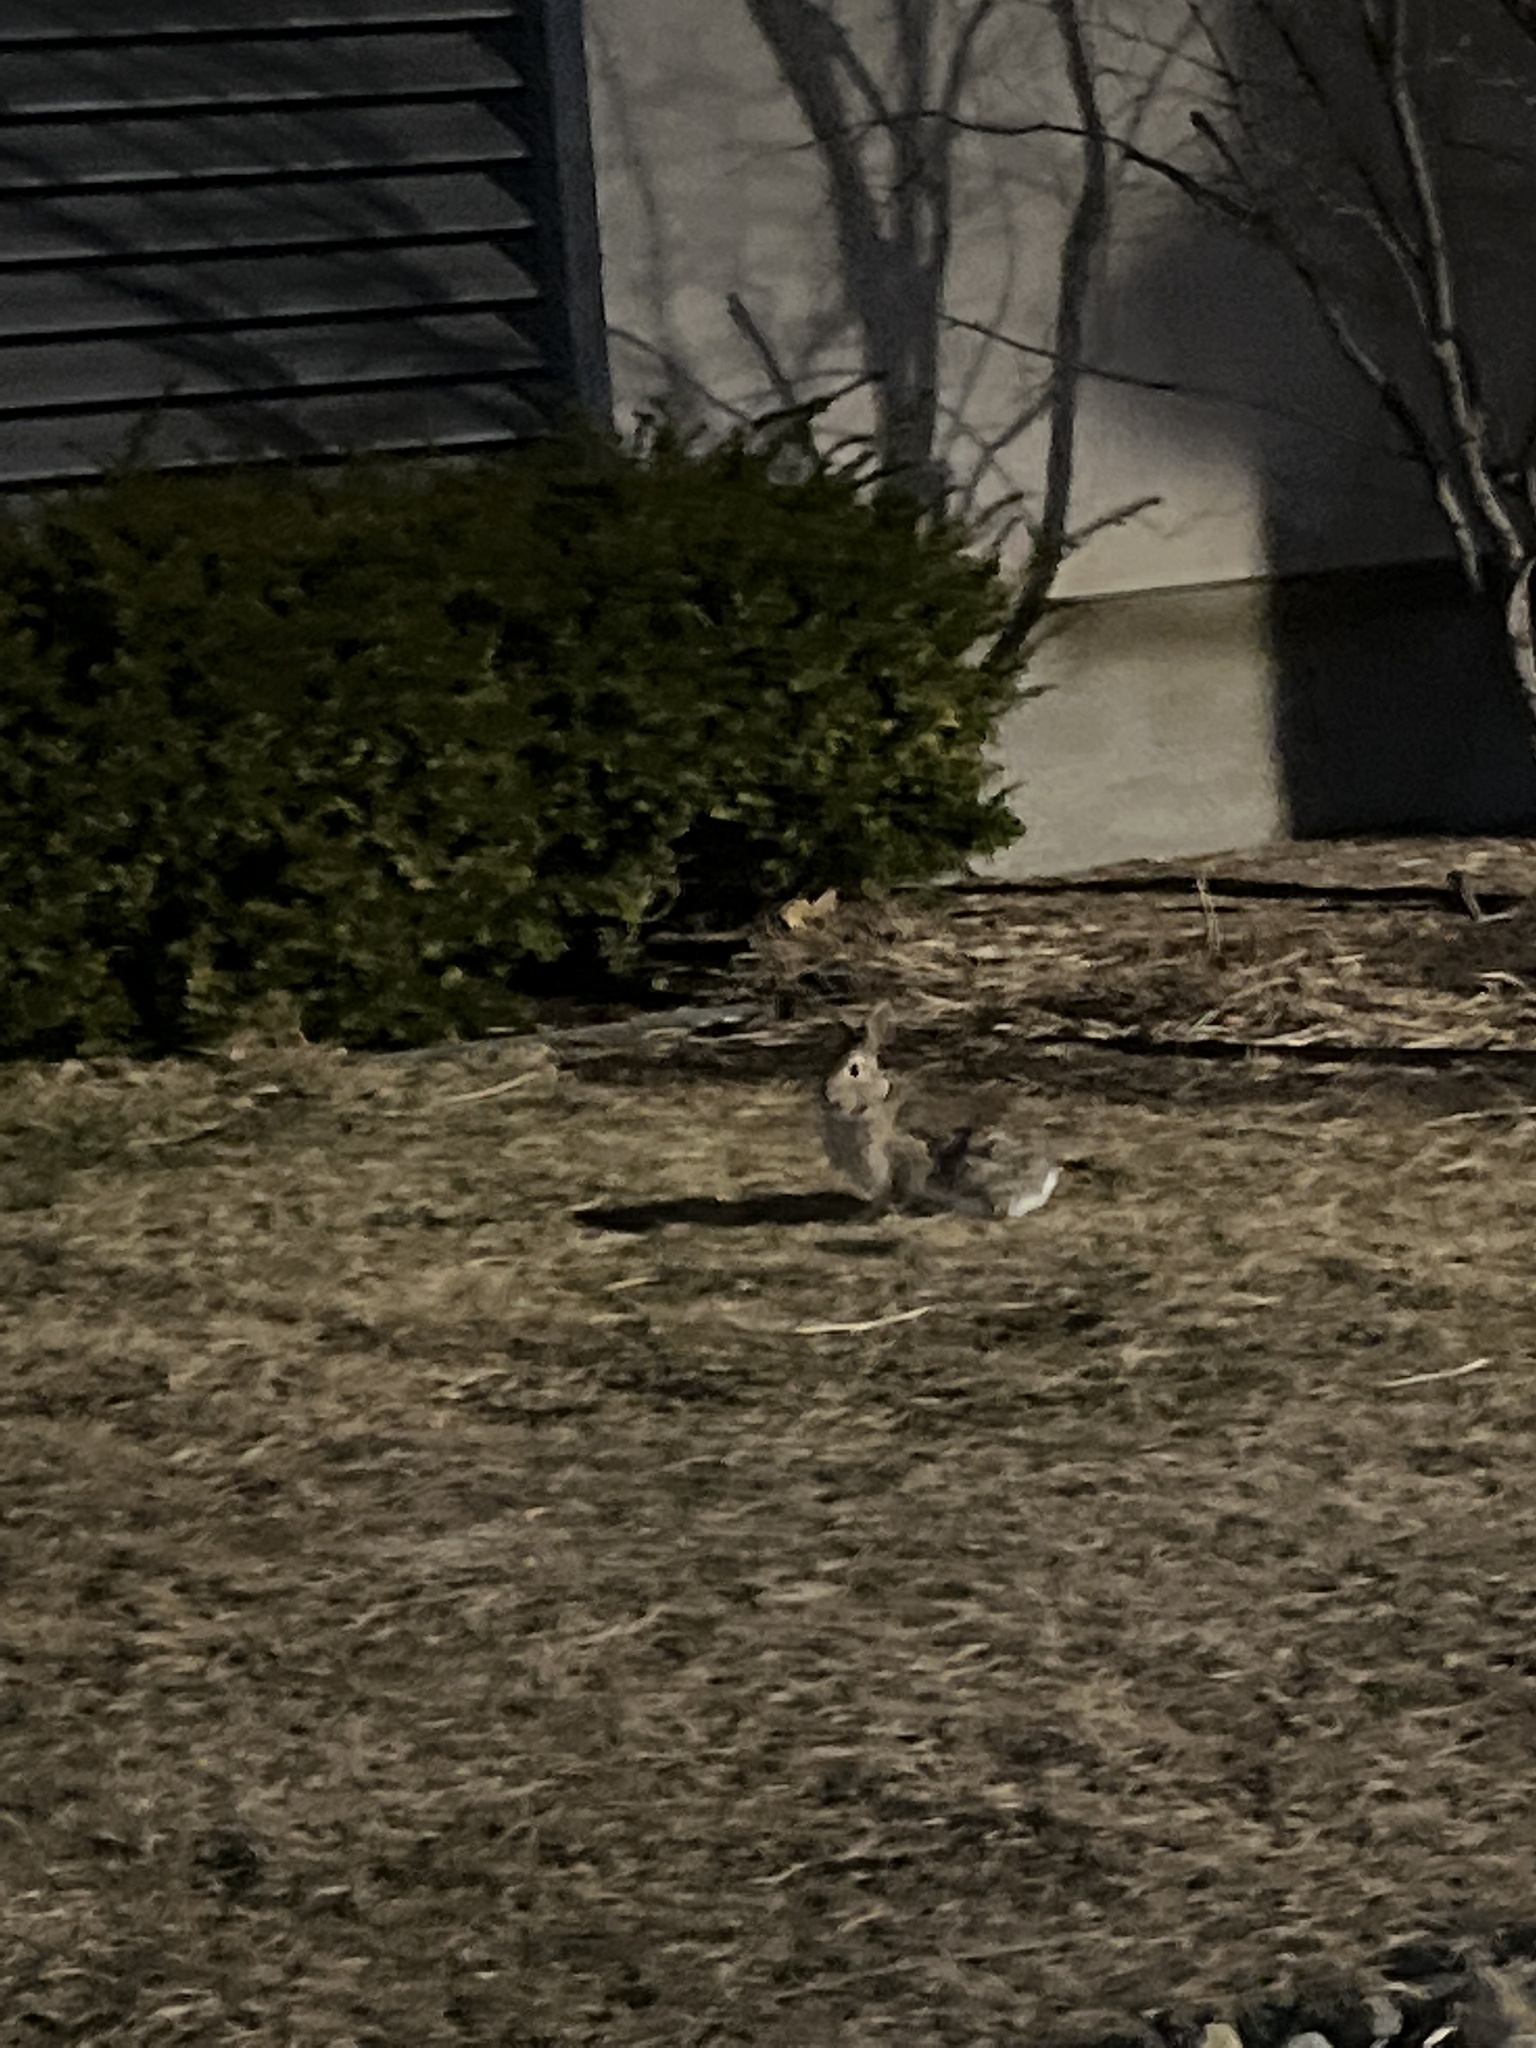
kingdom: Animalia
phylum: Chordata
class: Mammalia
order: Lagomorpha
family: Leporidae
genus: Sylvilagus
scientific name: Sylvilagus floridanus
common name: Eastern cottontail
